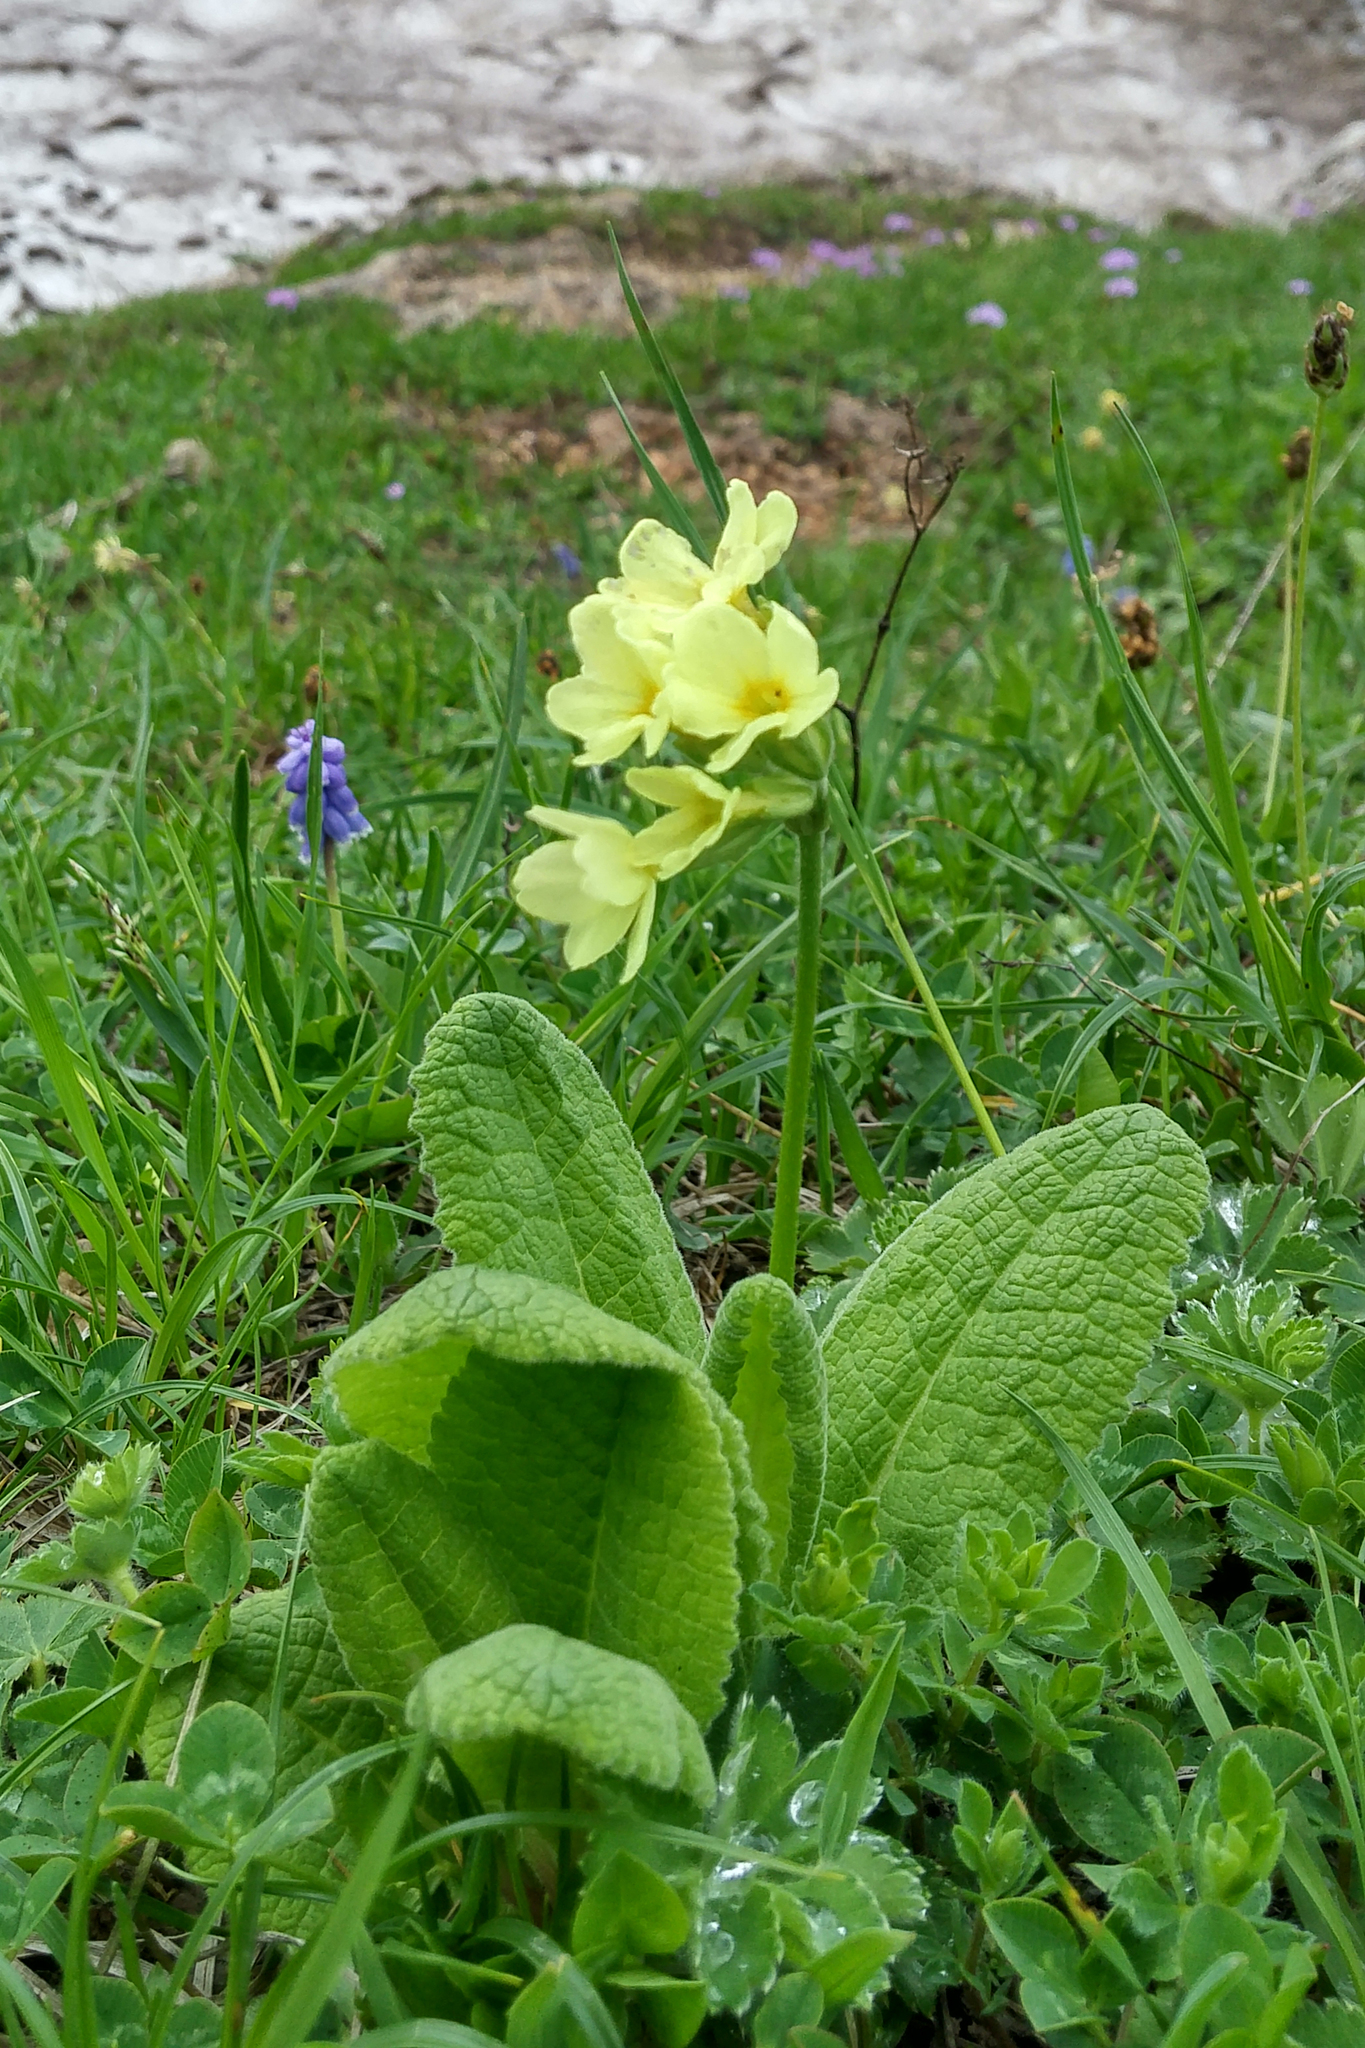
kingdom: Plantae
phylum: Tracheophyta
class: Magnoliopsida
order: Ericales
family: Primulaceae
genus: Primula
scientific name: Primula ruprechtii
